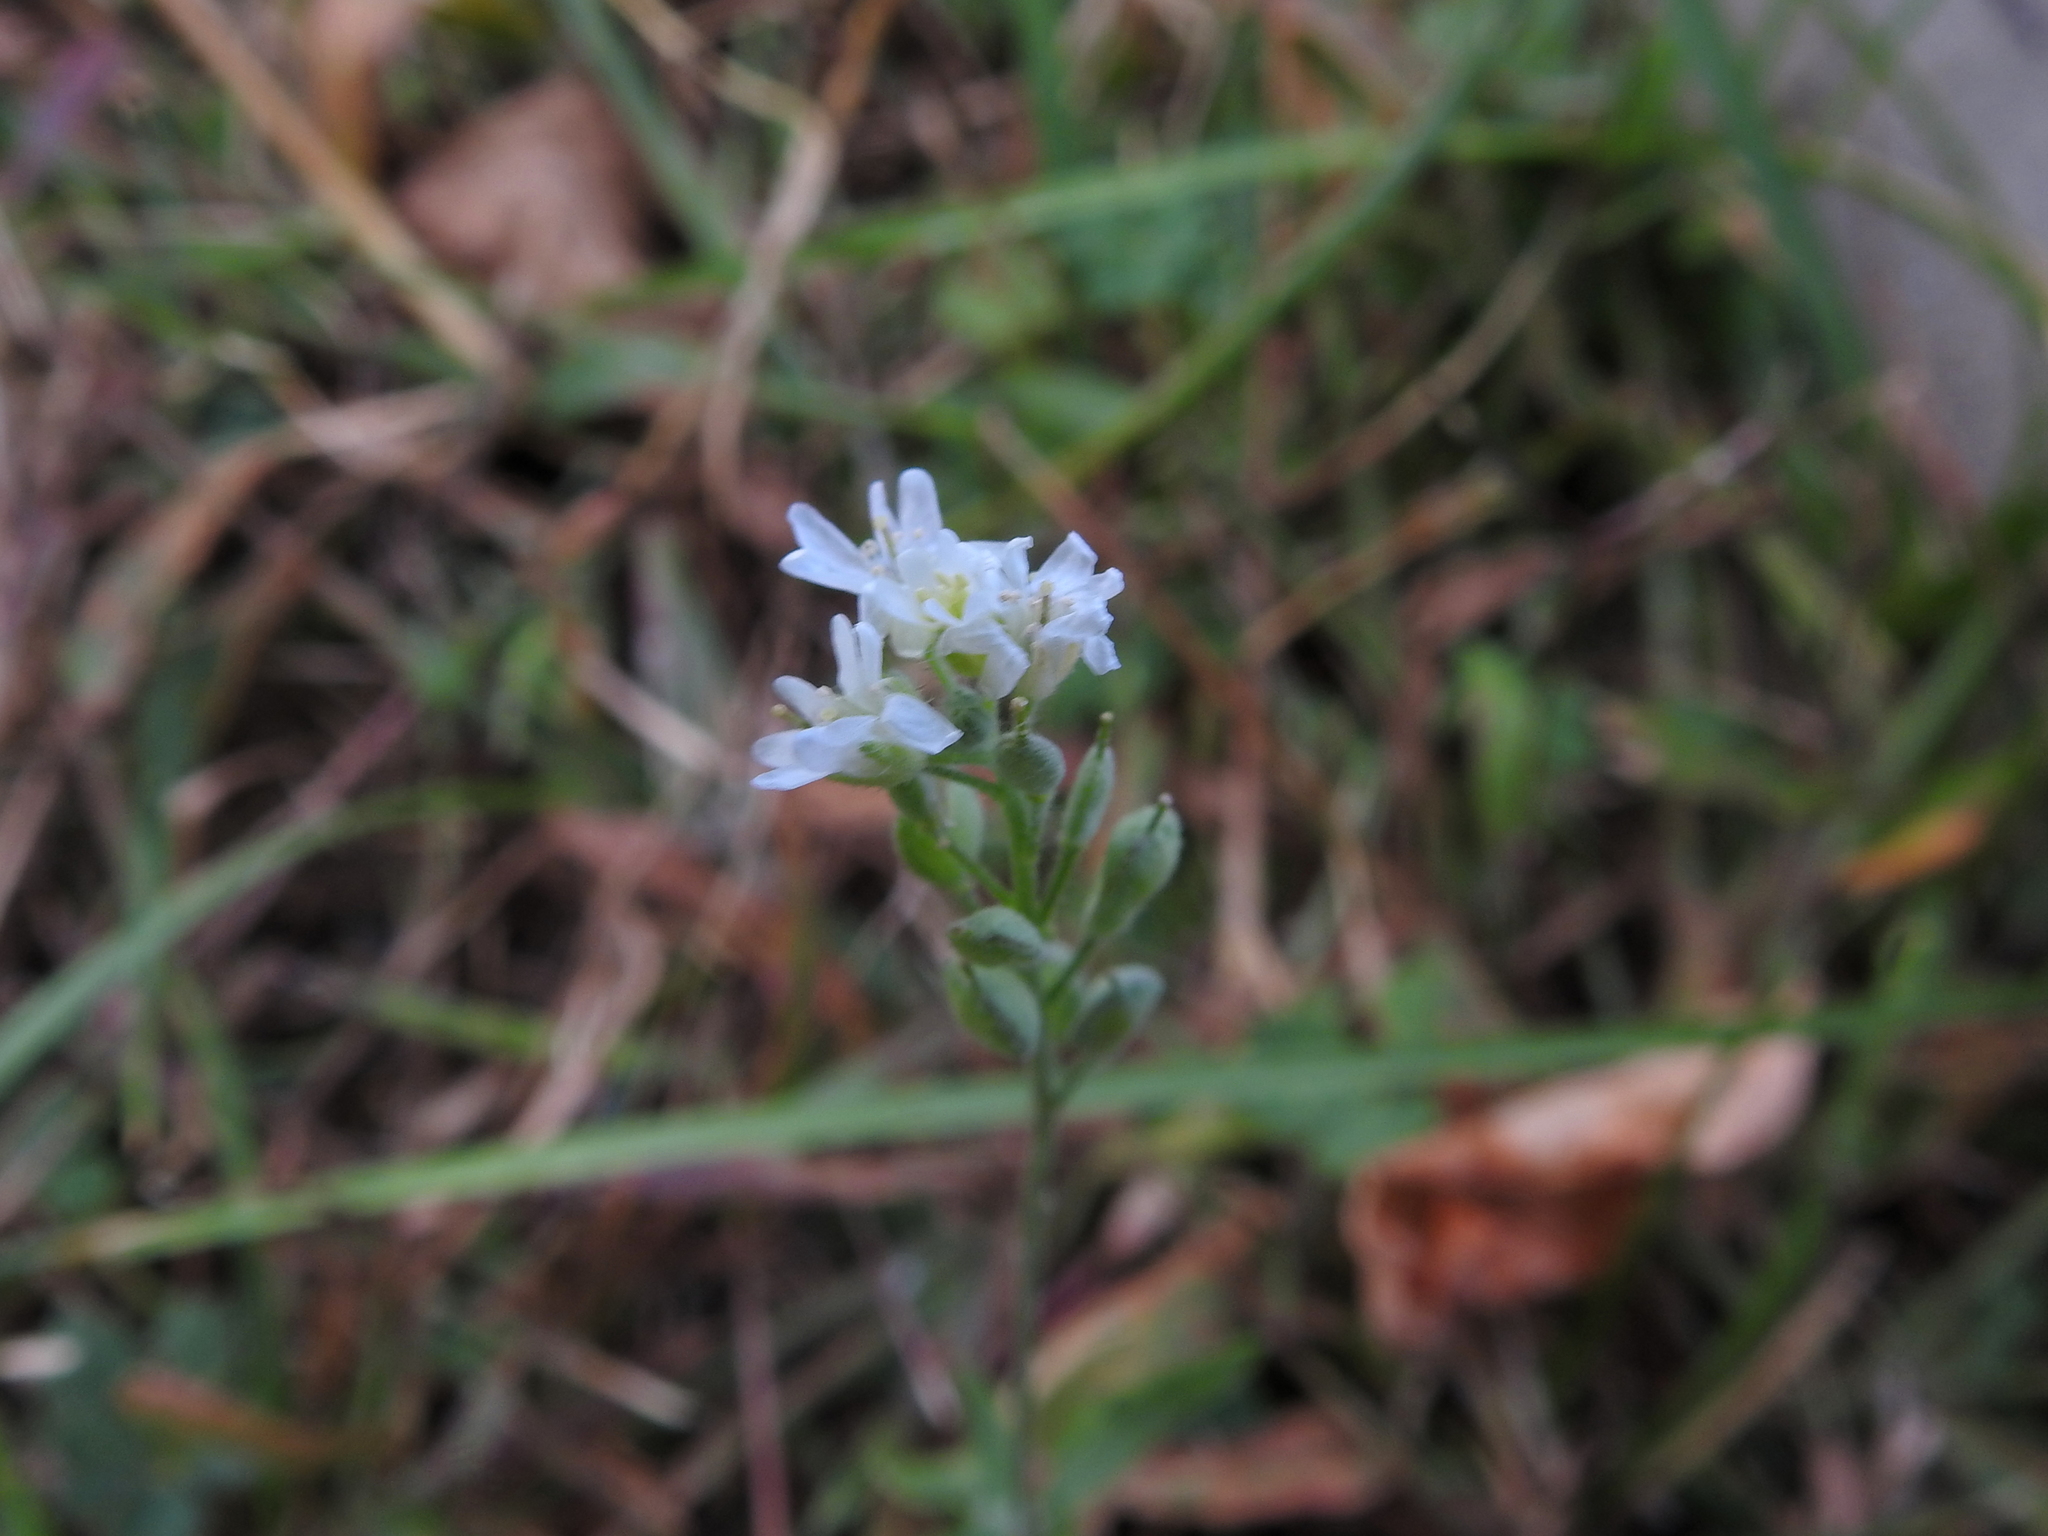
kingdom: Plantae
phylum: Tracheophyta
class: Magnoliopsida
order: Brassicales
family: Brassicaceae
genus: Berteroa
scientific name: Berteroa incana
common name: Hoary alison
